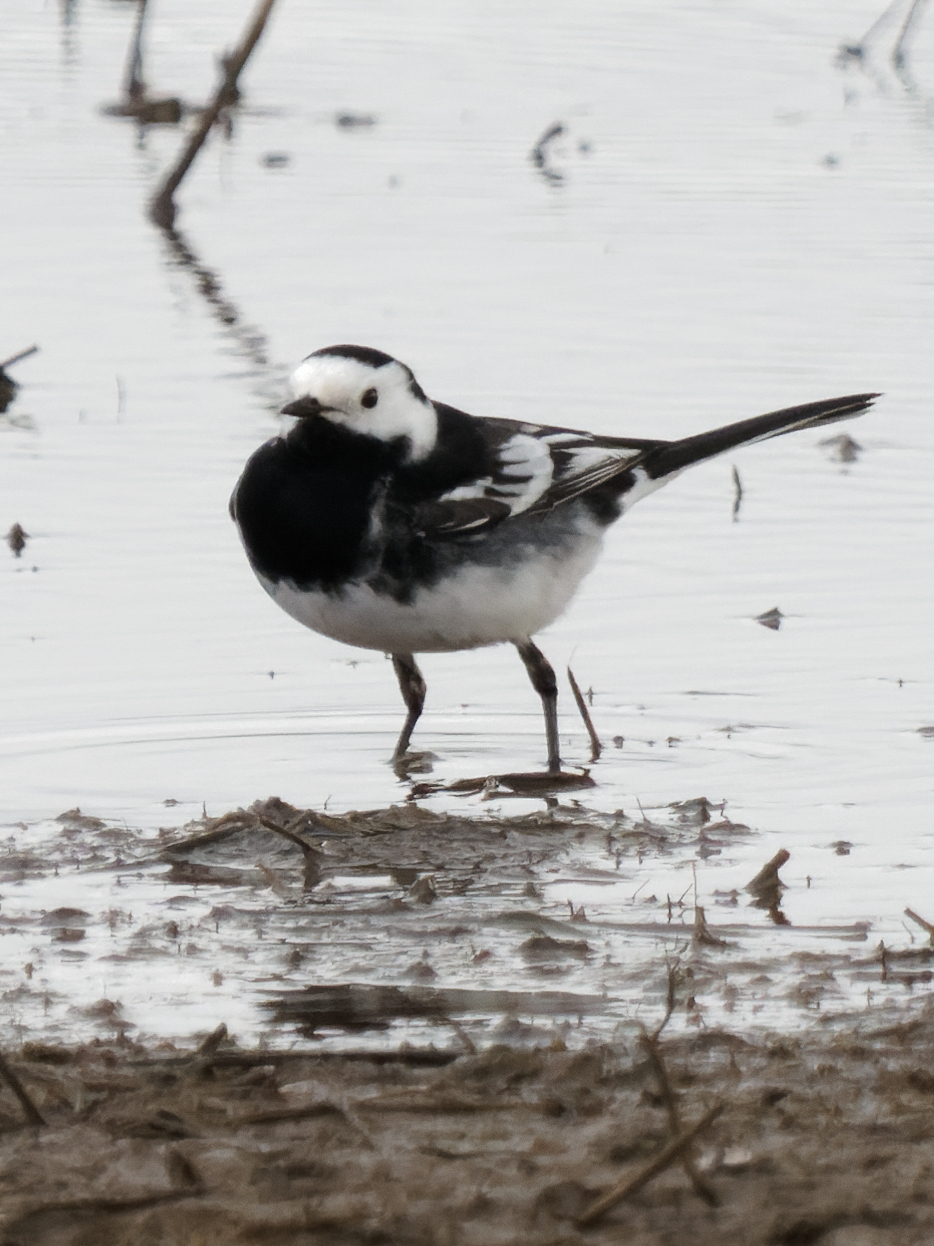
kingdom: Animalia
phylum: Chordata
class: Aves
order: Passeriformes
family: Motacillidae
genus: Motacilla
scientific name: Motacilla alba
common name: White wagtail
